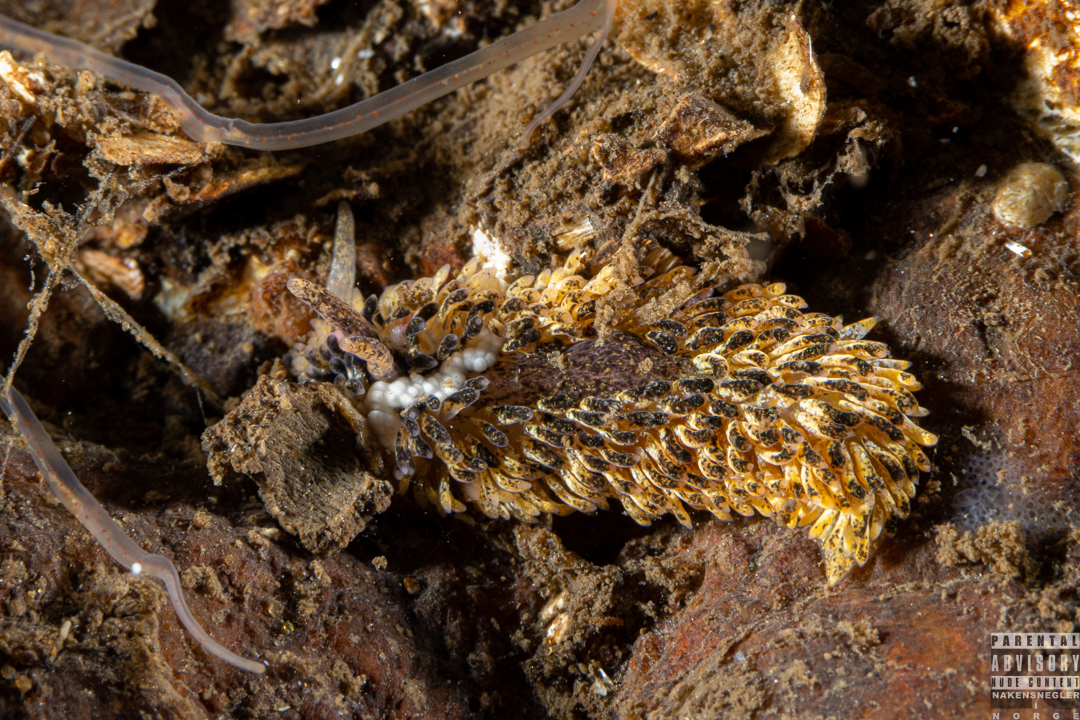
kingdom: Animalia
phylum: Mollusca
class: Gastropoda
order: Nudibranchia
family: Aeolidiidae
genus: Aeolidia
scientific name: Aeolidia papillosa
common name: Common grey sea slug
